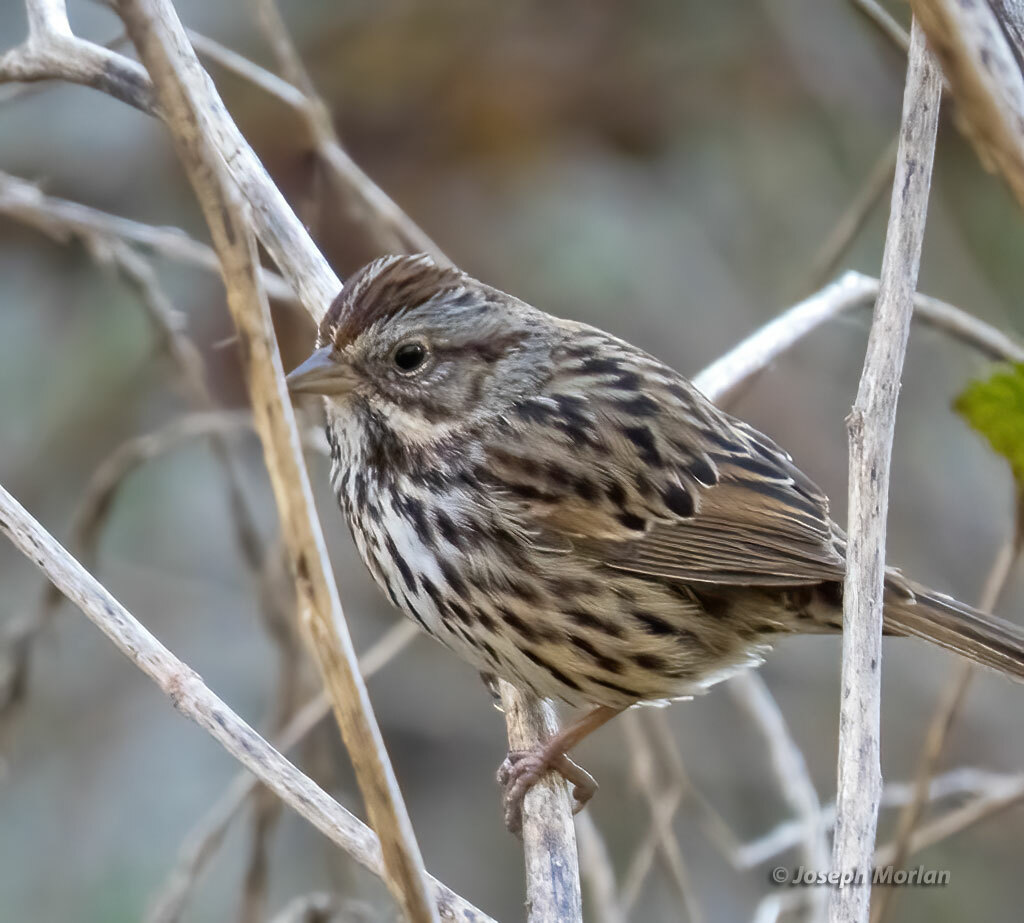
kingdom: Animalia
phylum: Chordata
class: Aves
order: Passeriformes
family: Passerellidae
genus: Melospiza
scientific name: Melospiza melodia
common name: Song sparrow
